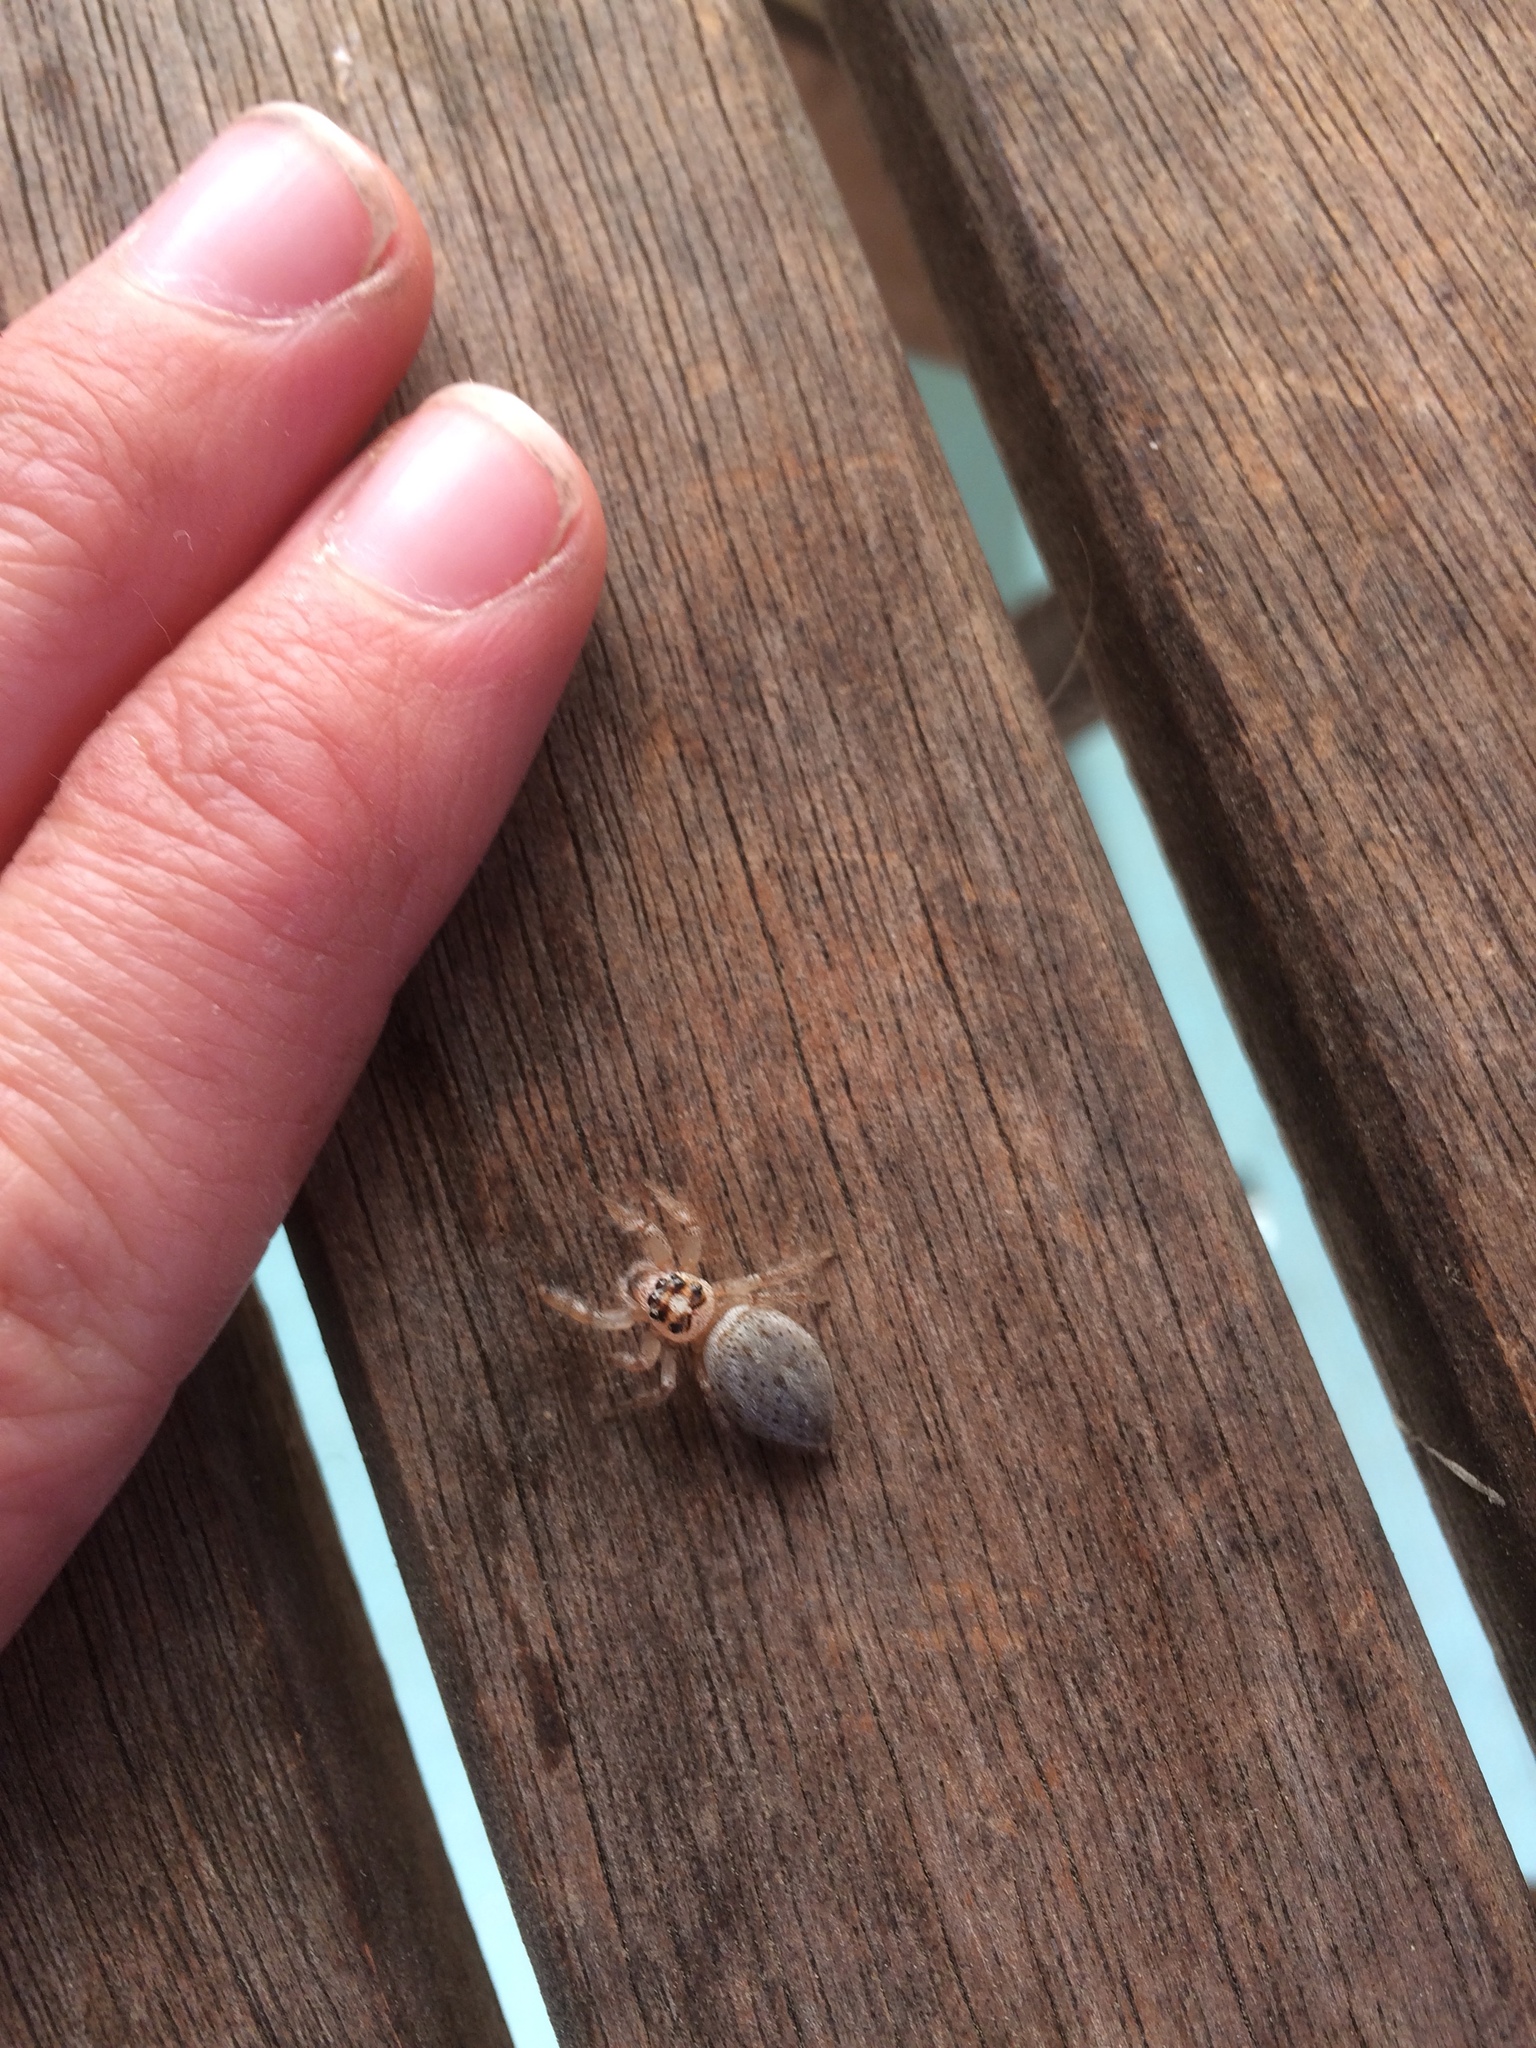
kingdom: Animalia
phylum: Arthropoda
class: Arachnida
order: Araneae
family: Salticidae
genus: Colonus
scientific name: Colonus hesperus
